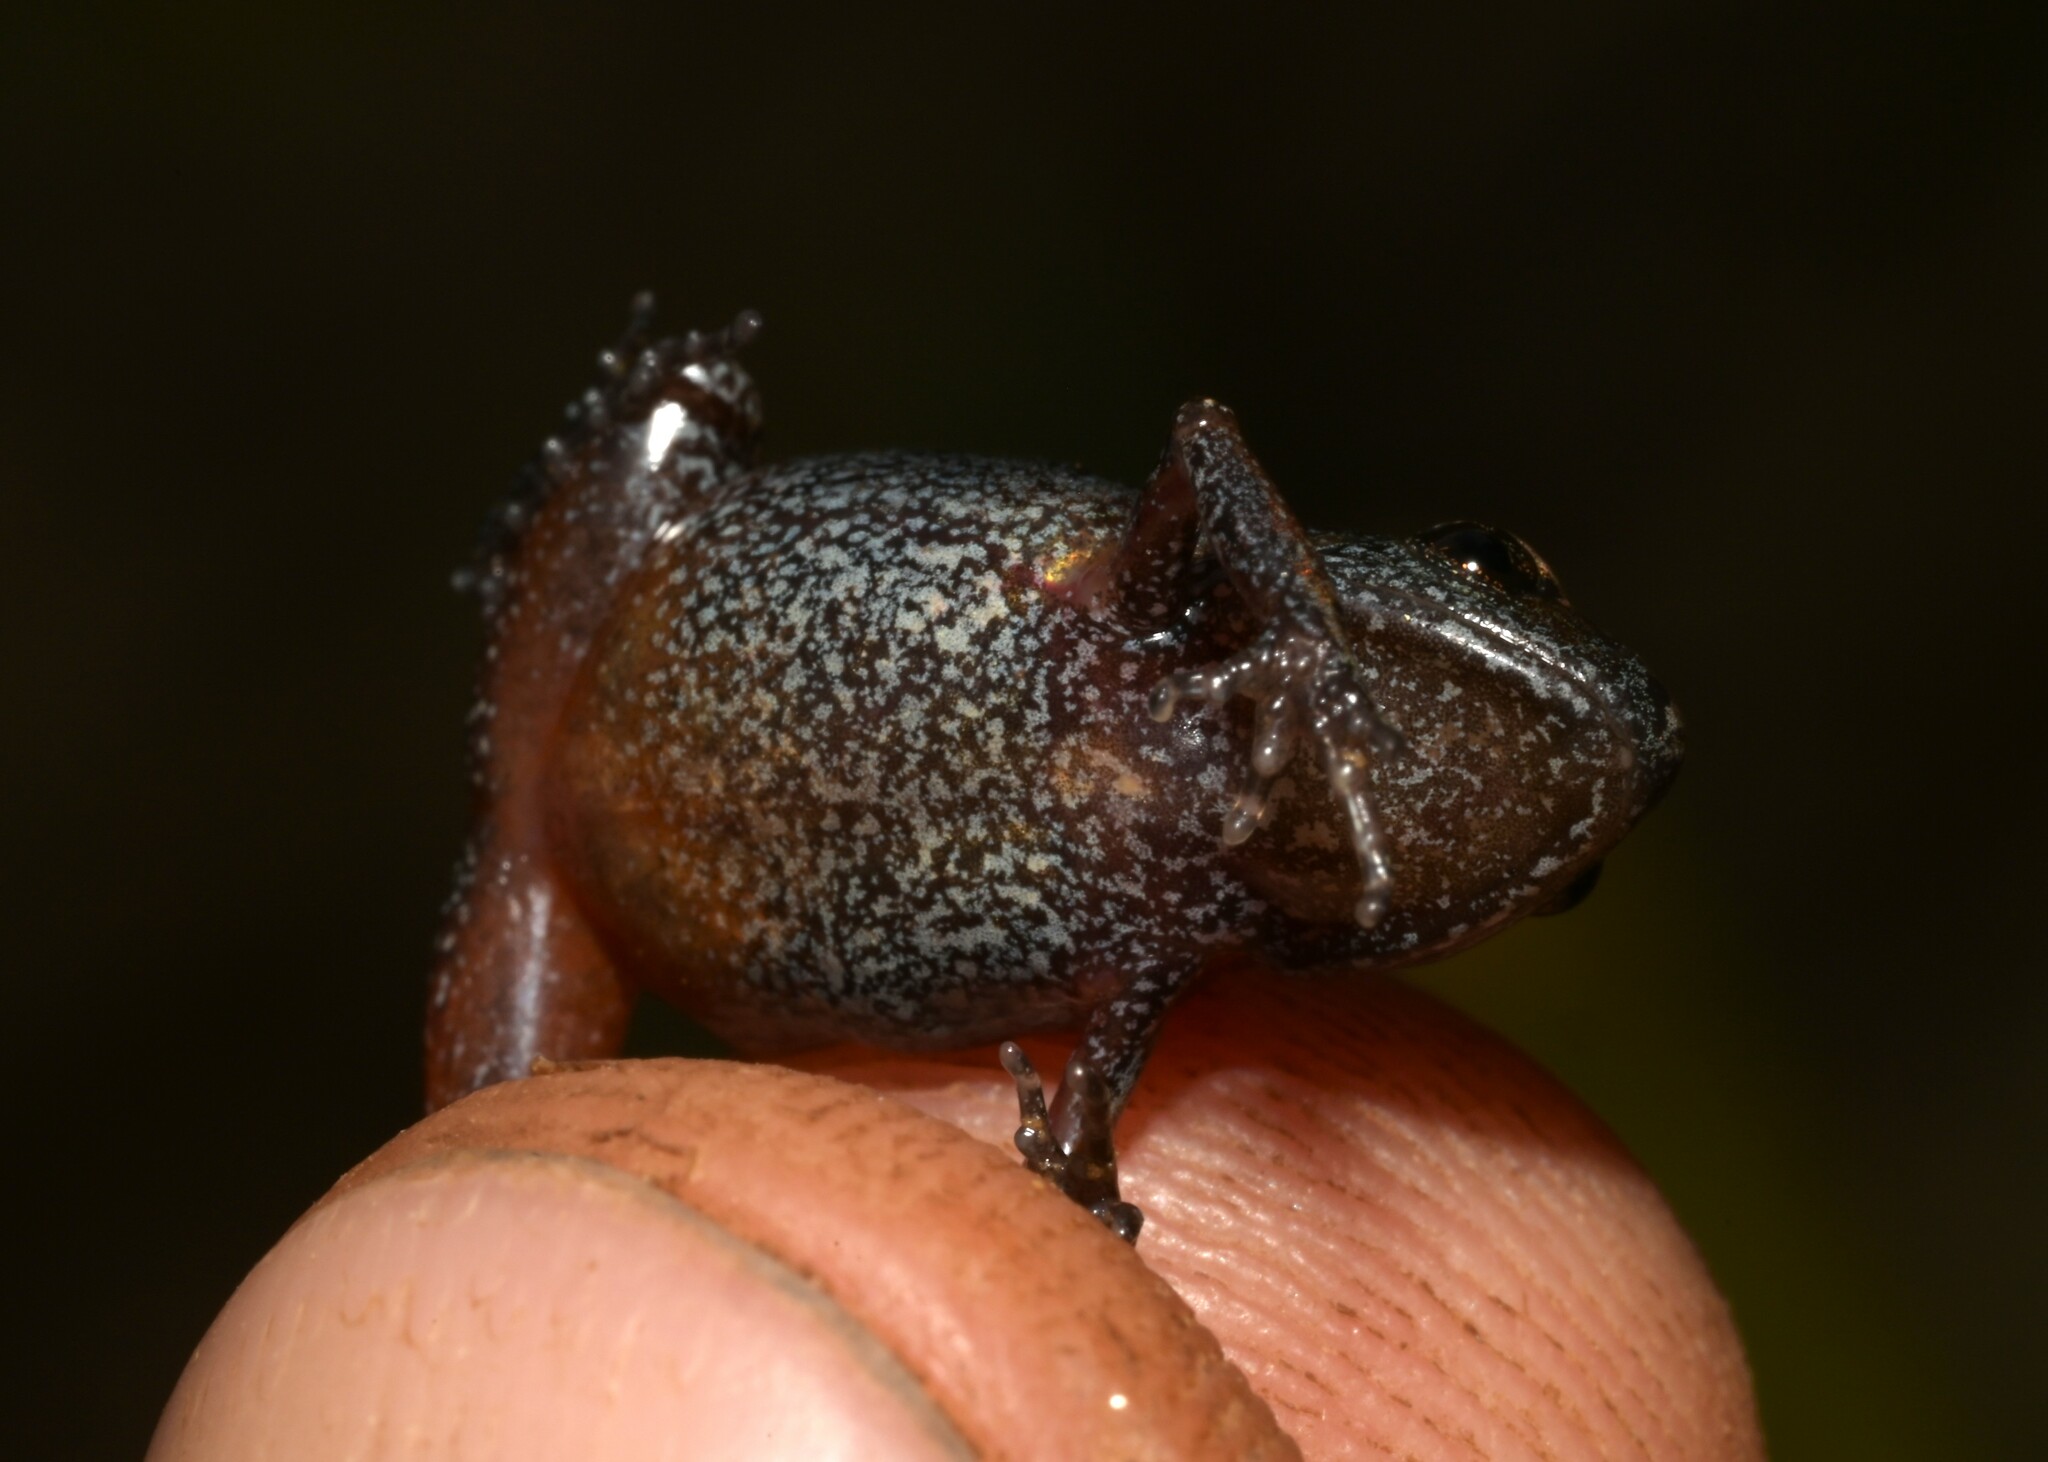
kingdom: Animalia
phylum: Chordata
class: Amphibia
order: Anura
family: Arthroleptidae
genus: Arthroleptis
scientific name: Arthroleptis xenodactyloides
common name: Chirinda screeching frog
